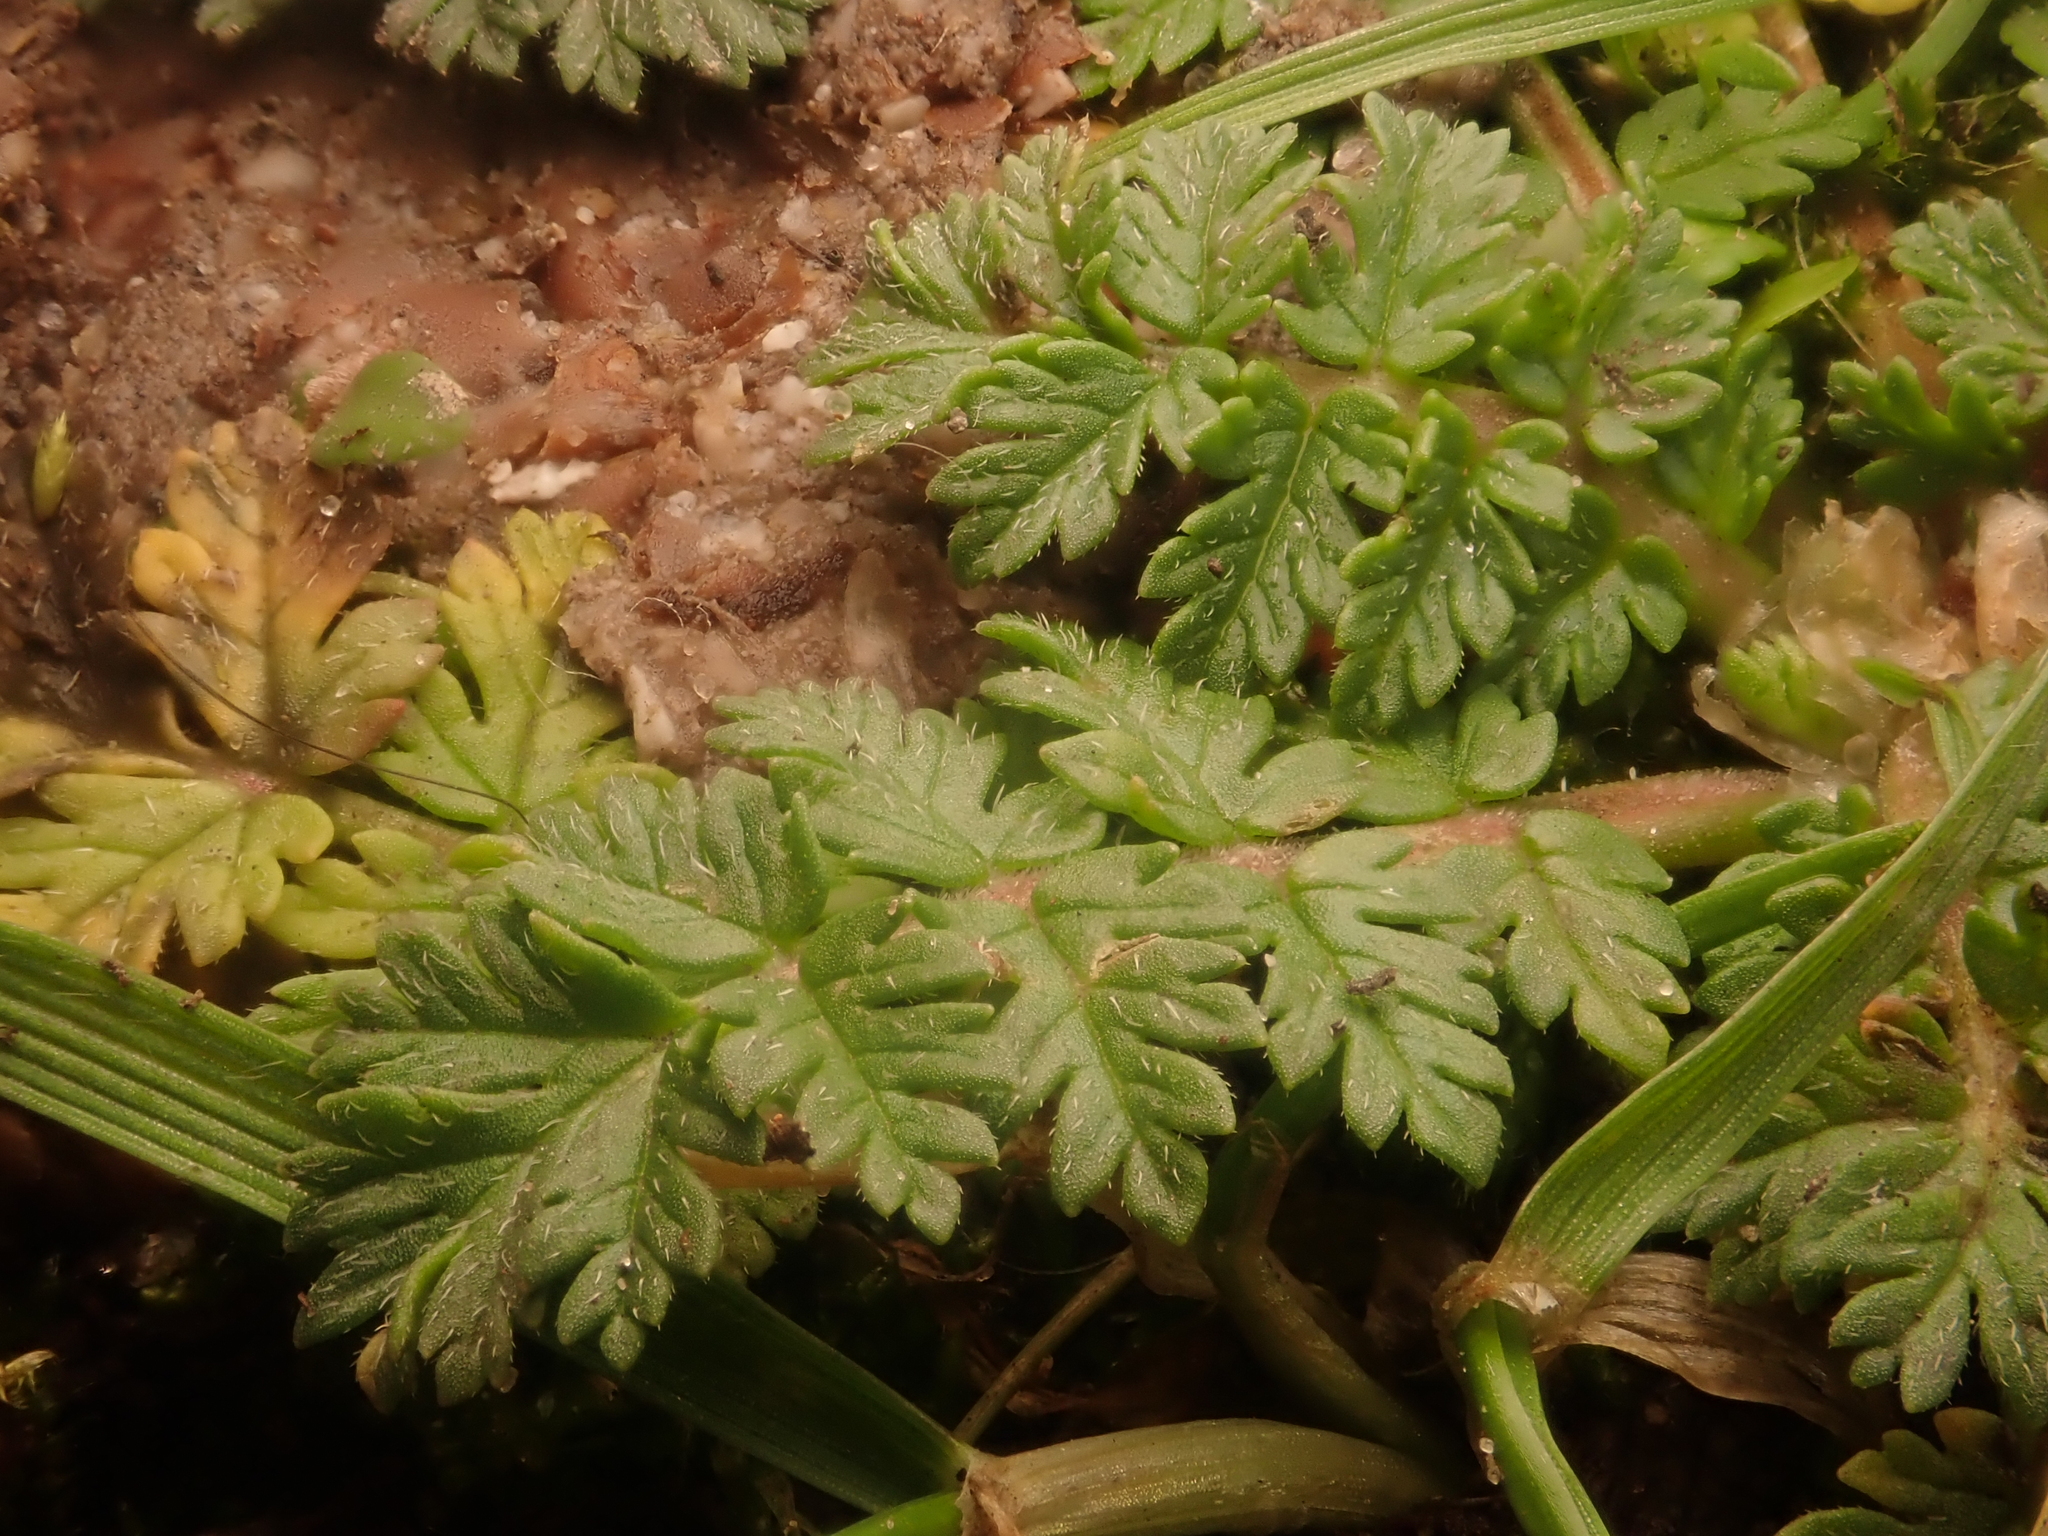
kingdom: Plantae
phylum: Tracheophyta
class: Magnoliopsida
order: Geraniales
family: Geraniaceae
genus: Erodium
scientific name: Erodium cicutarium
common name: Common stork's-bill
